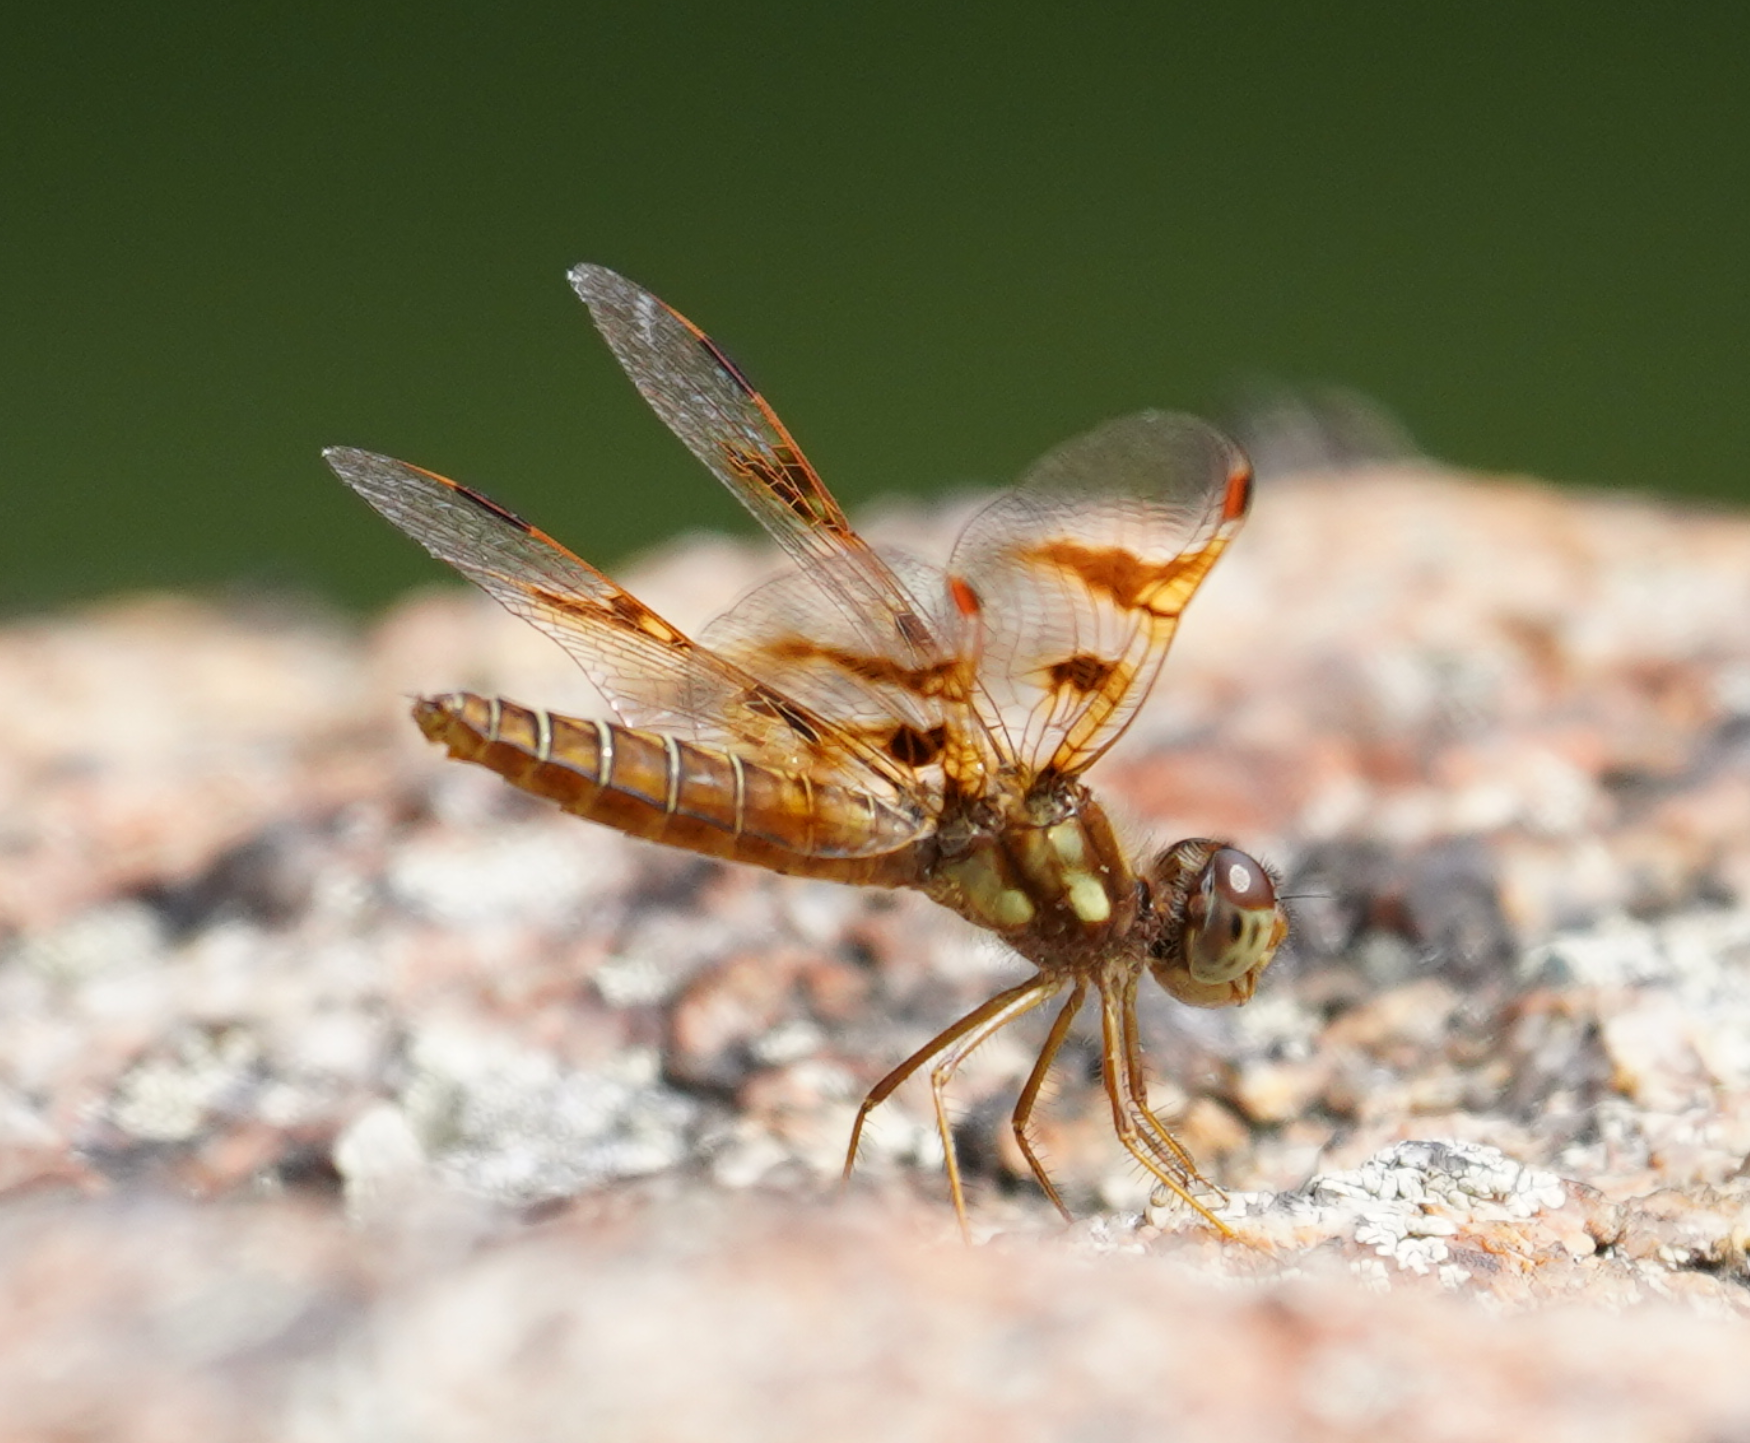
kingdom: Animalia
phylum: Arthropoda
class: Insecta
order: Odonata
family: Libellulidae
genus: Perithemis
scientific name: Perithemis tenera
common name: Eastern amberwing
